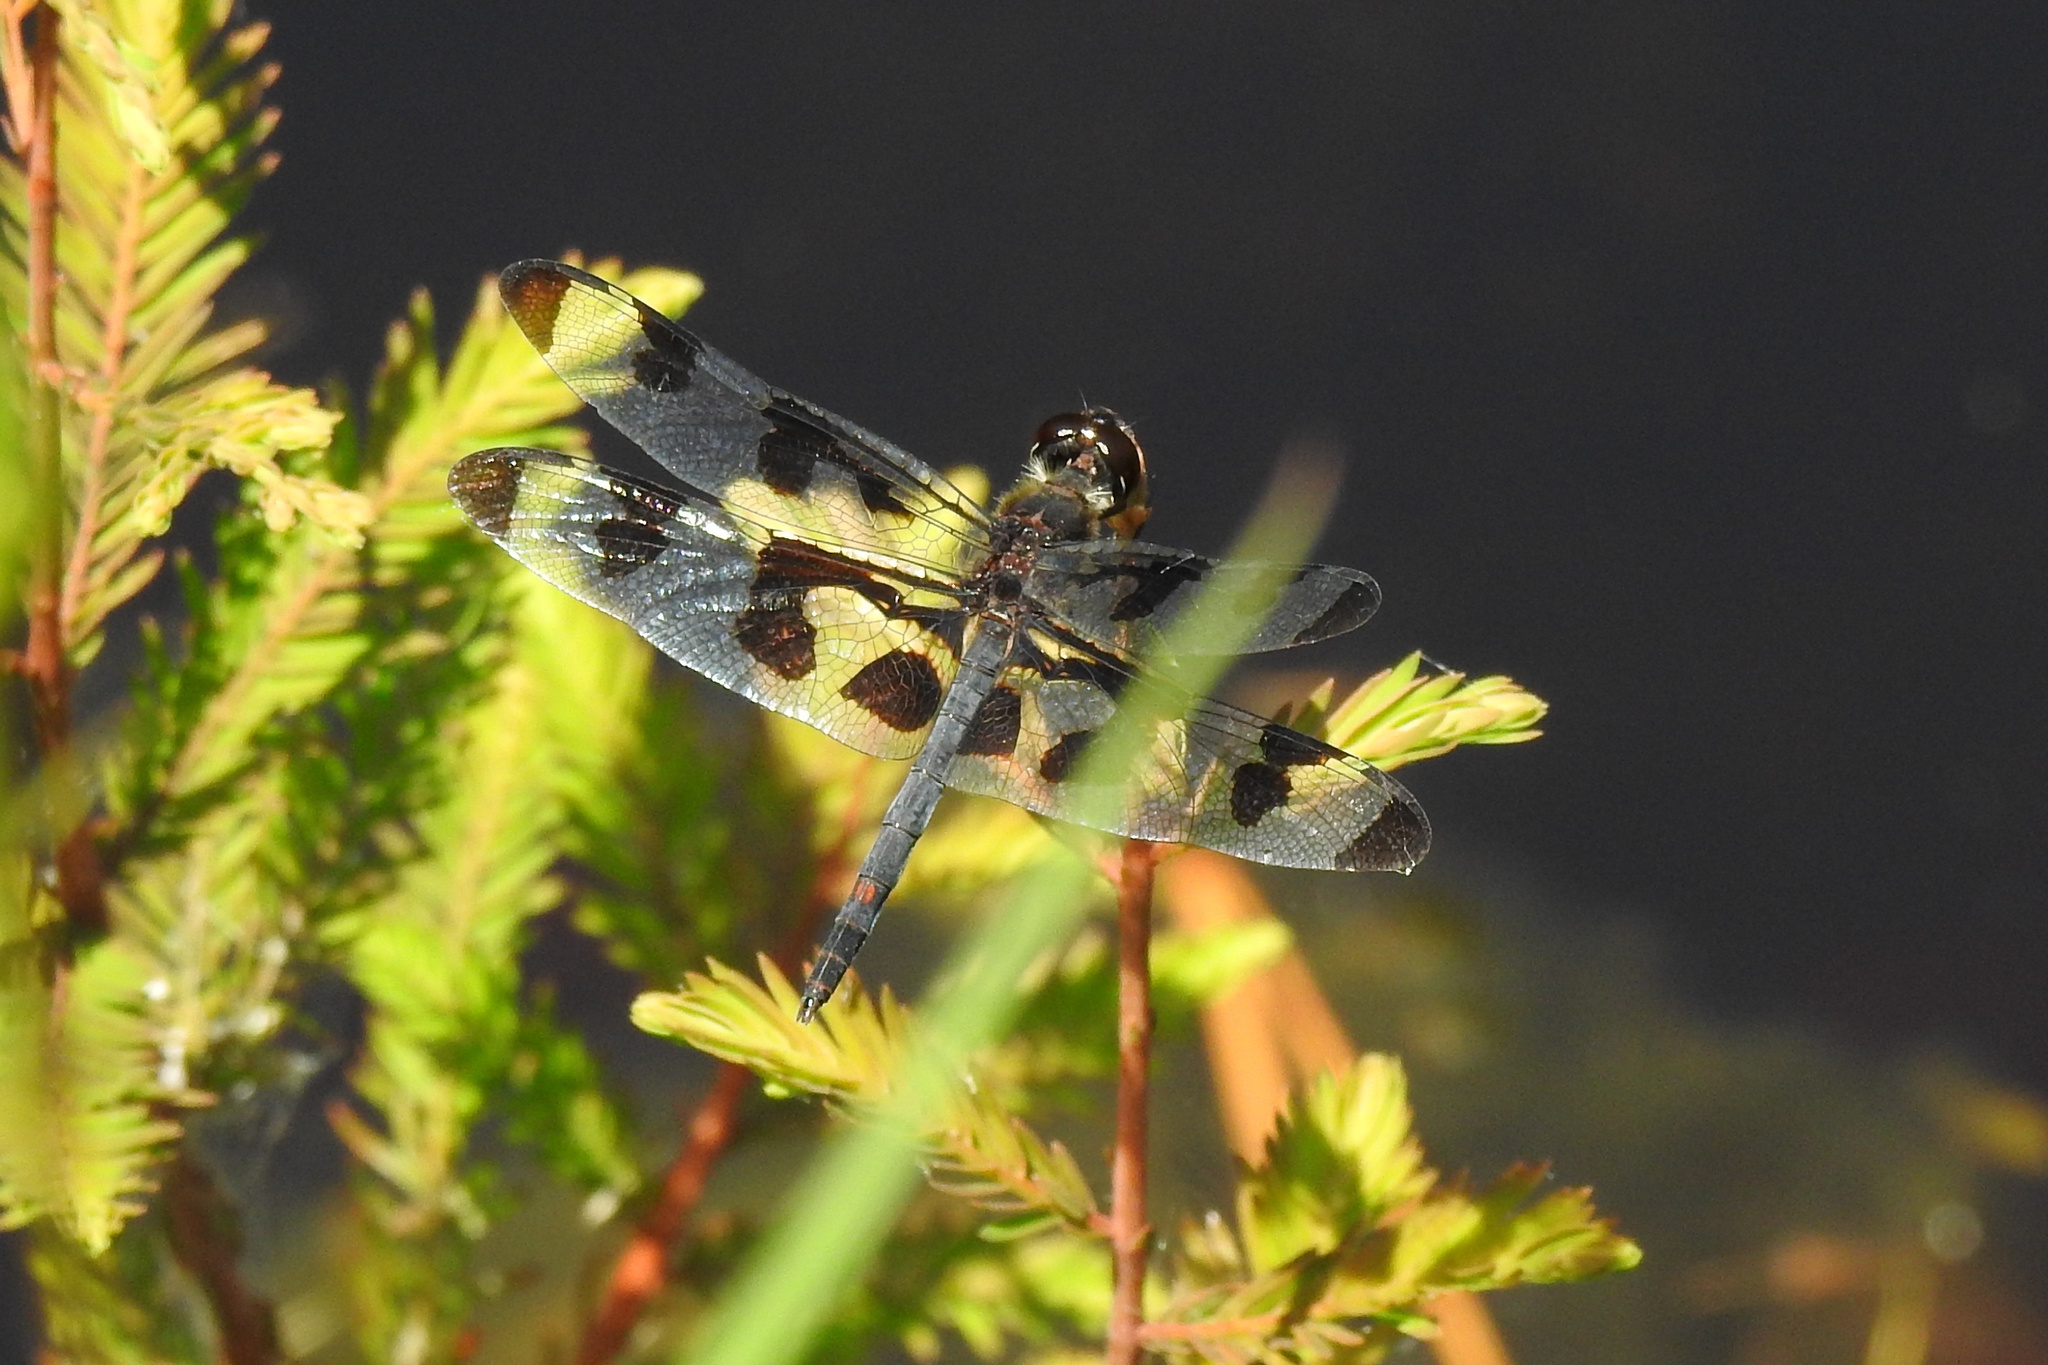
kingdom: Animalia
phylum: Arthropoda
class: Insecta
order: Odonata
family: Libellulidae
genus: Celithemis
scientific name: Celithemis fasciata
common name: Banded pennant
